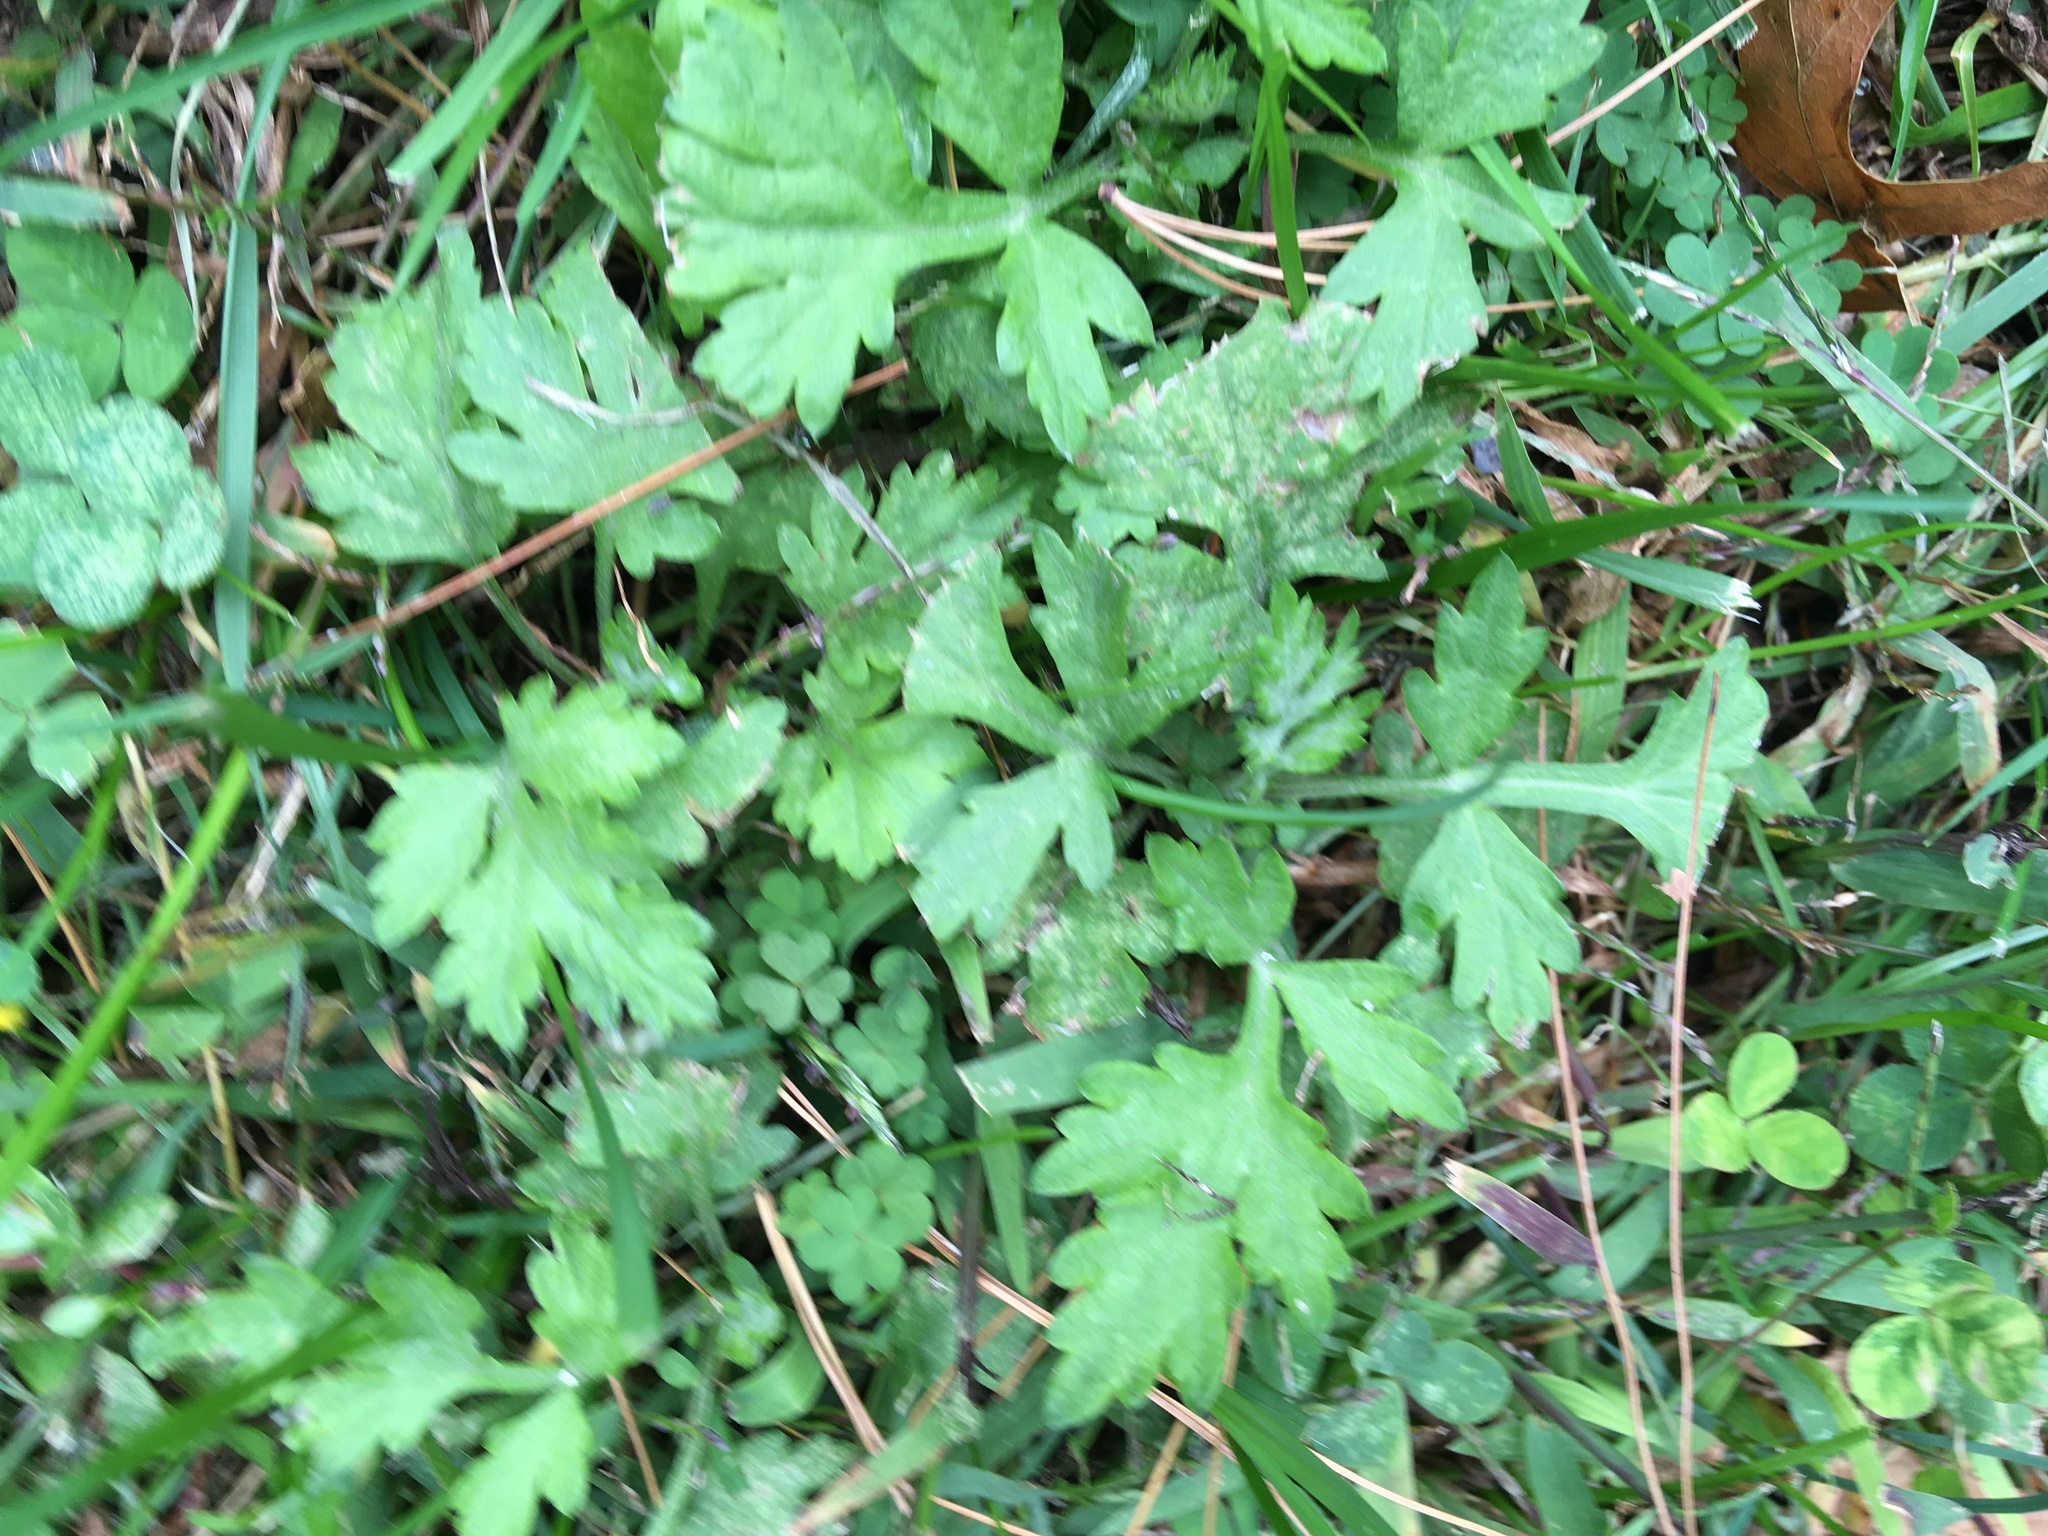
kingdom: Plantae
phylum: Tracheophyta
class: Magnoliopsida
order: Asterales
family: Asteraceae
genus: Artemisia
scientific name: Artemisia vulgaris
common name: Mugwort
